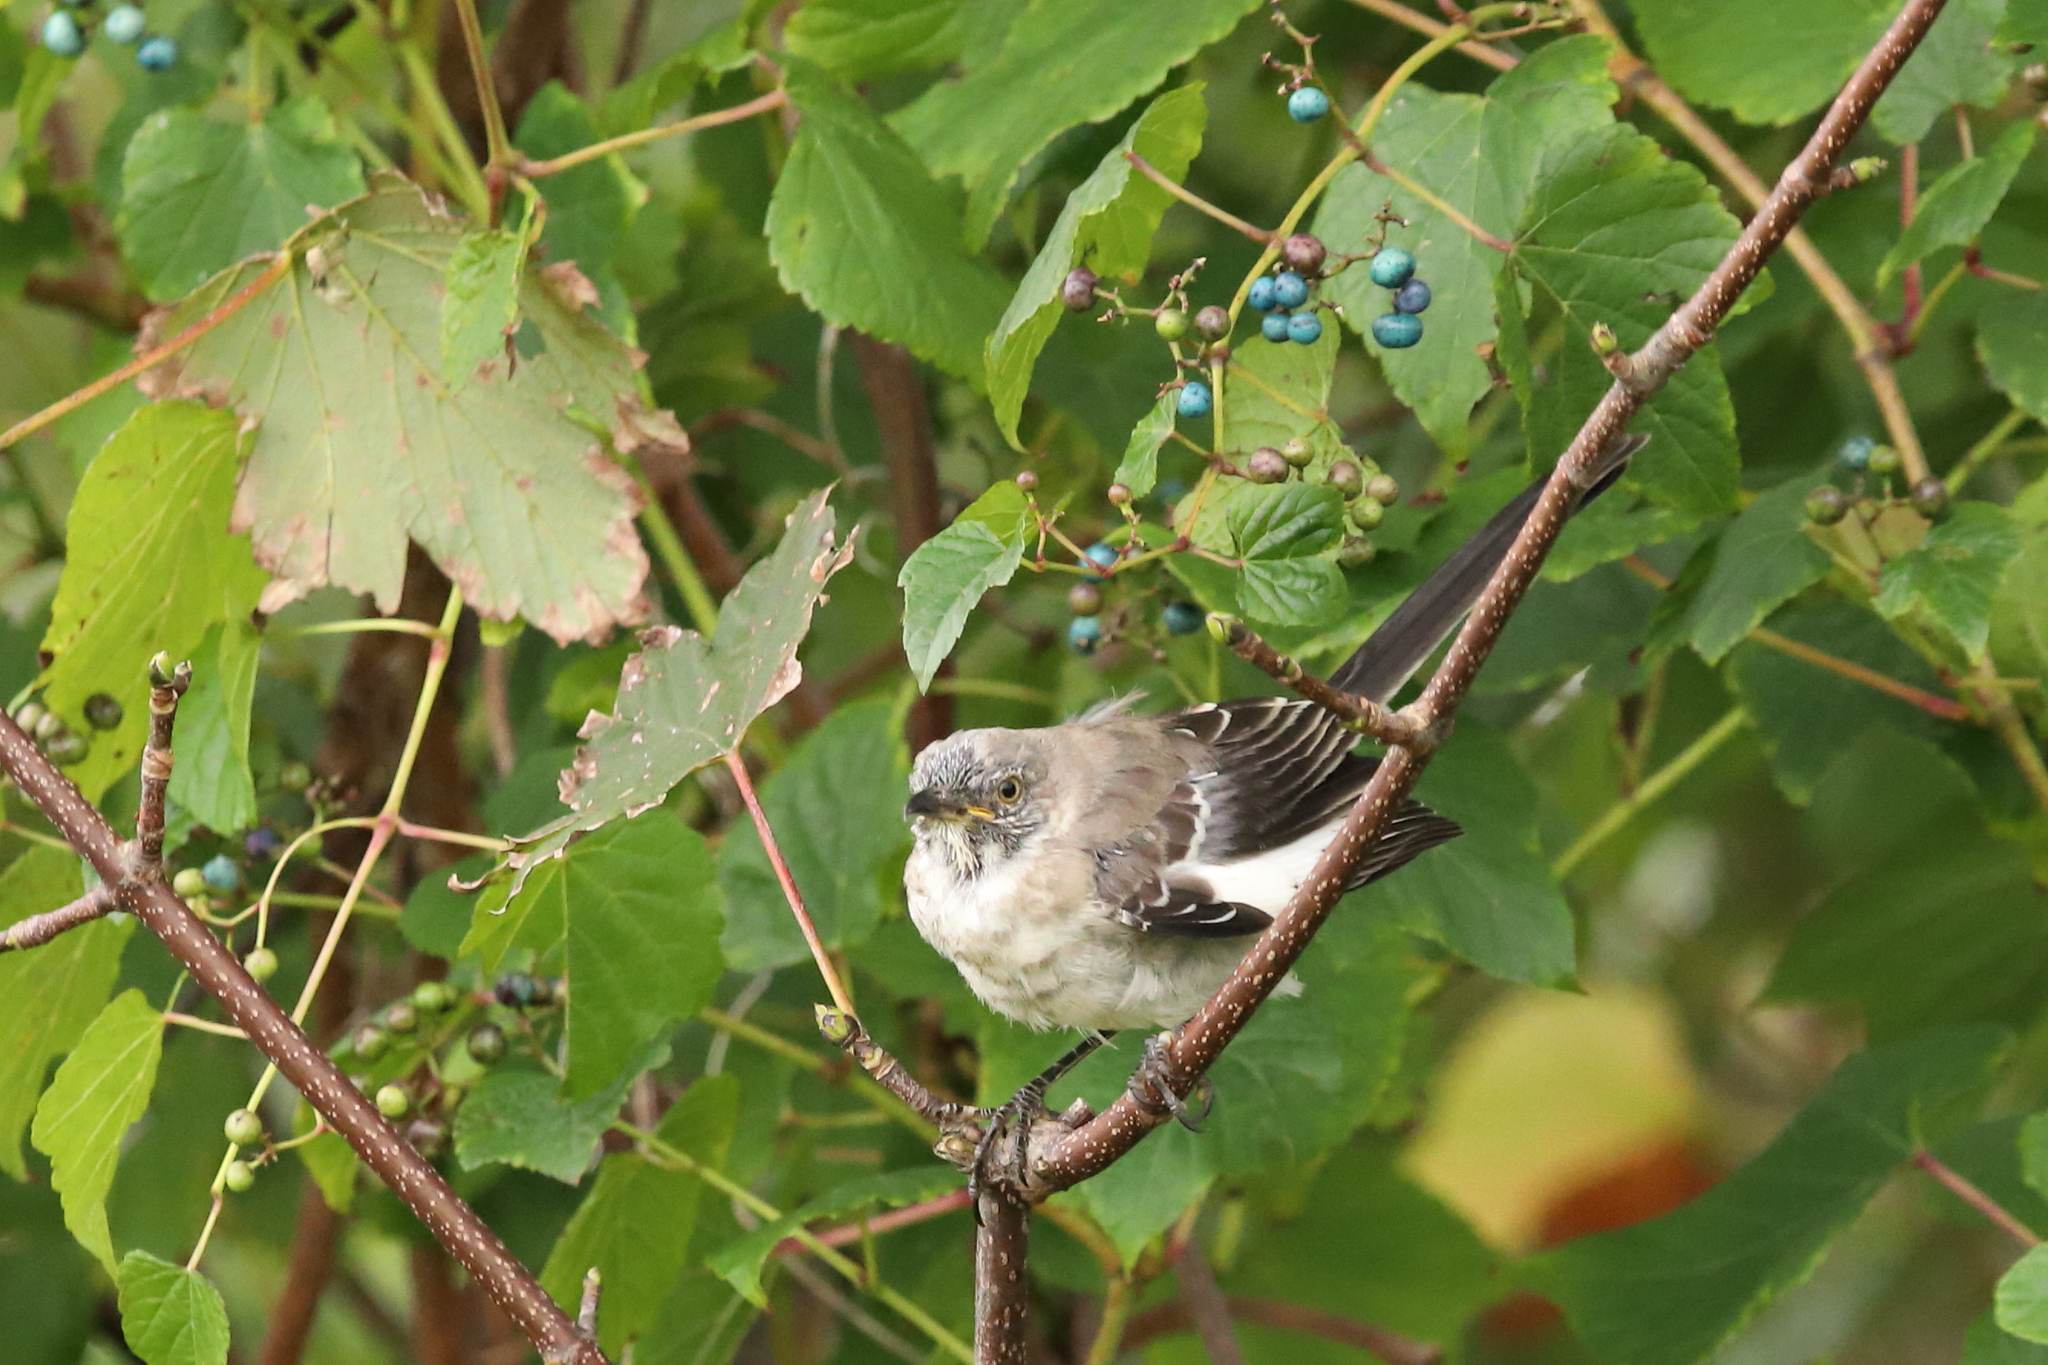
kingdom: Animalia
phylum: Chordata
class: Aves
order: Passeriformes
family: Mimidae
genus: Mimus
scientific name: Mimus polyglottos
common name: Northern mockingbird
